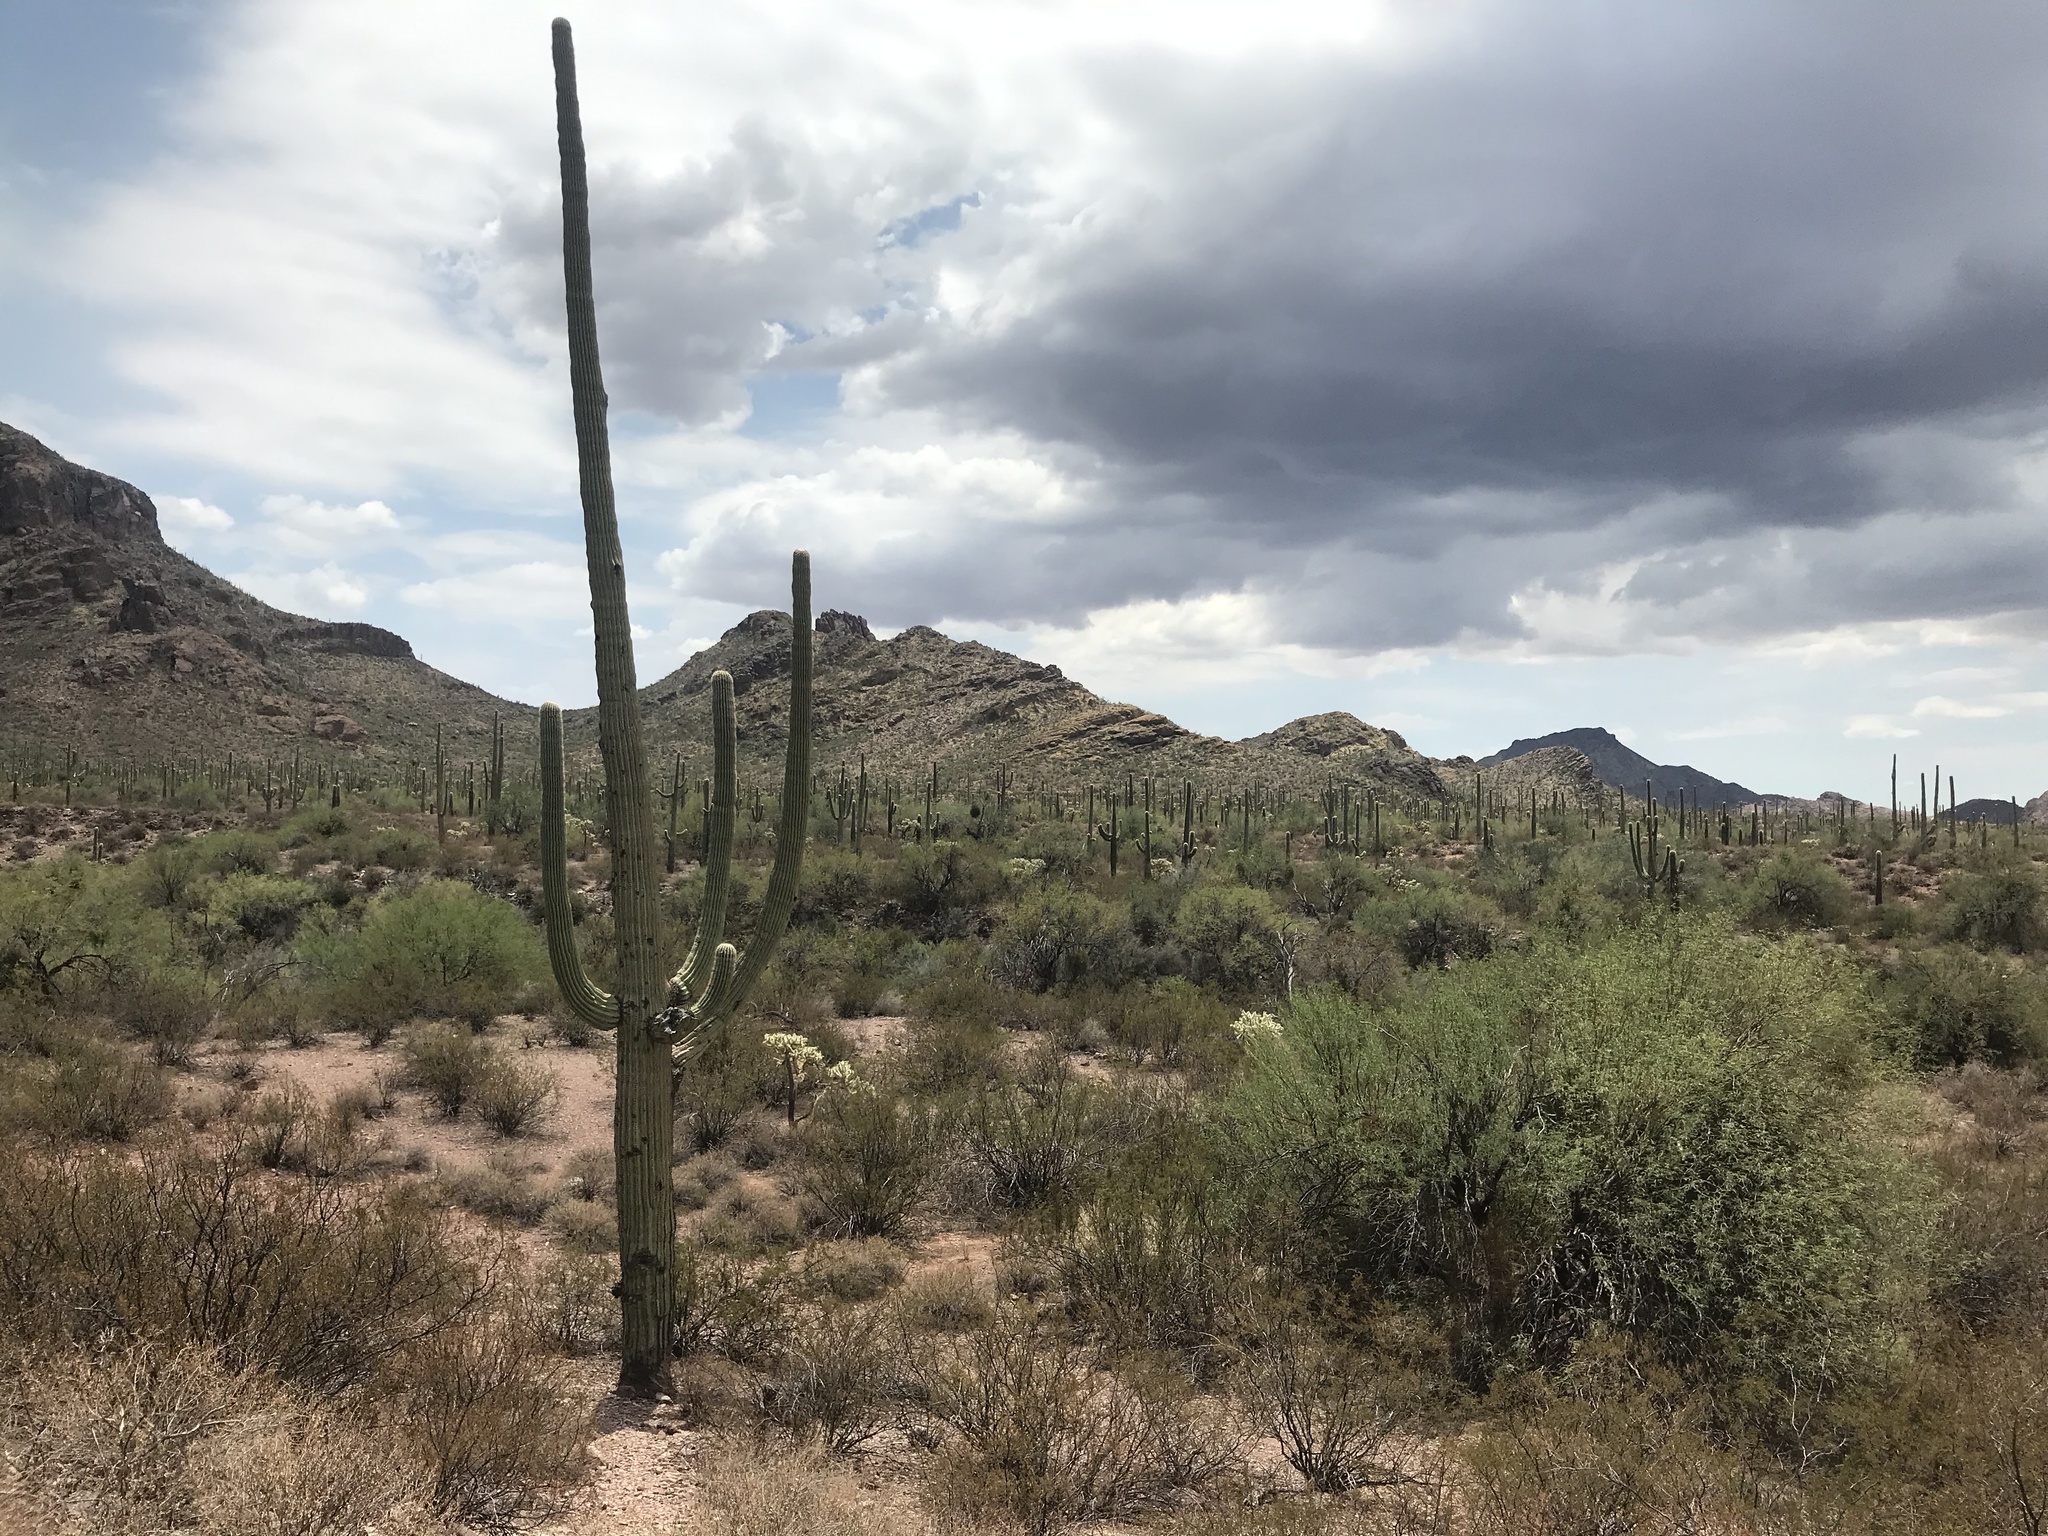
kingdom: Plantae
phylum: Tracheophyta
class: Magnoliopsida
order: Caryophyllales
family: Cactaceae
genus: Carnegiea
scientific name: Carnegiea gigantea
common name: Saguaro
